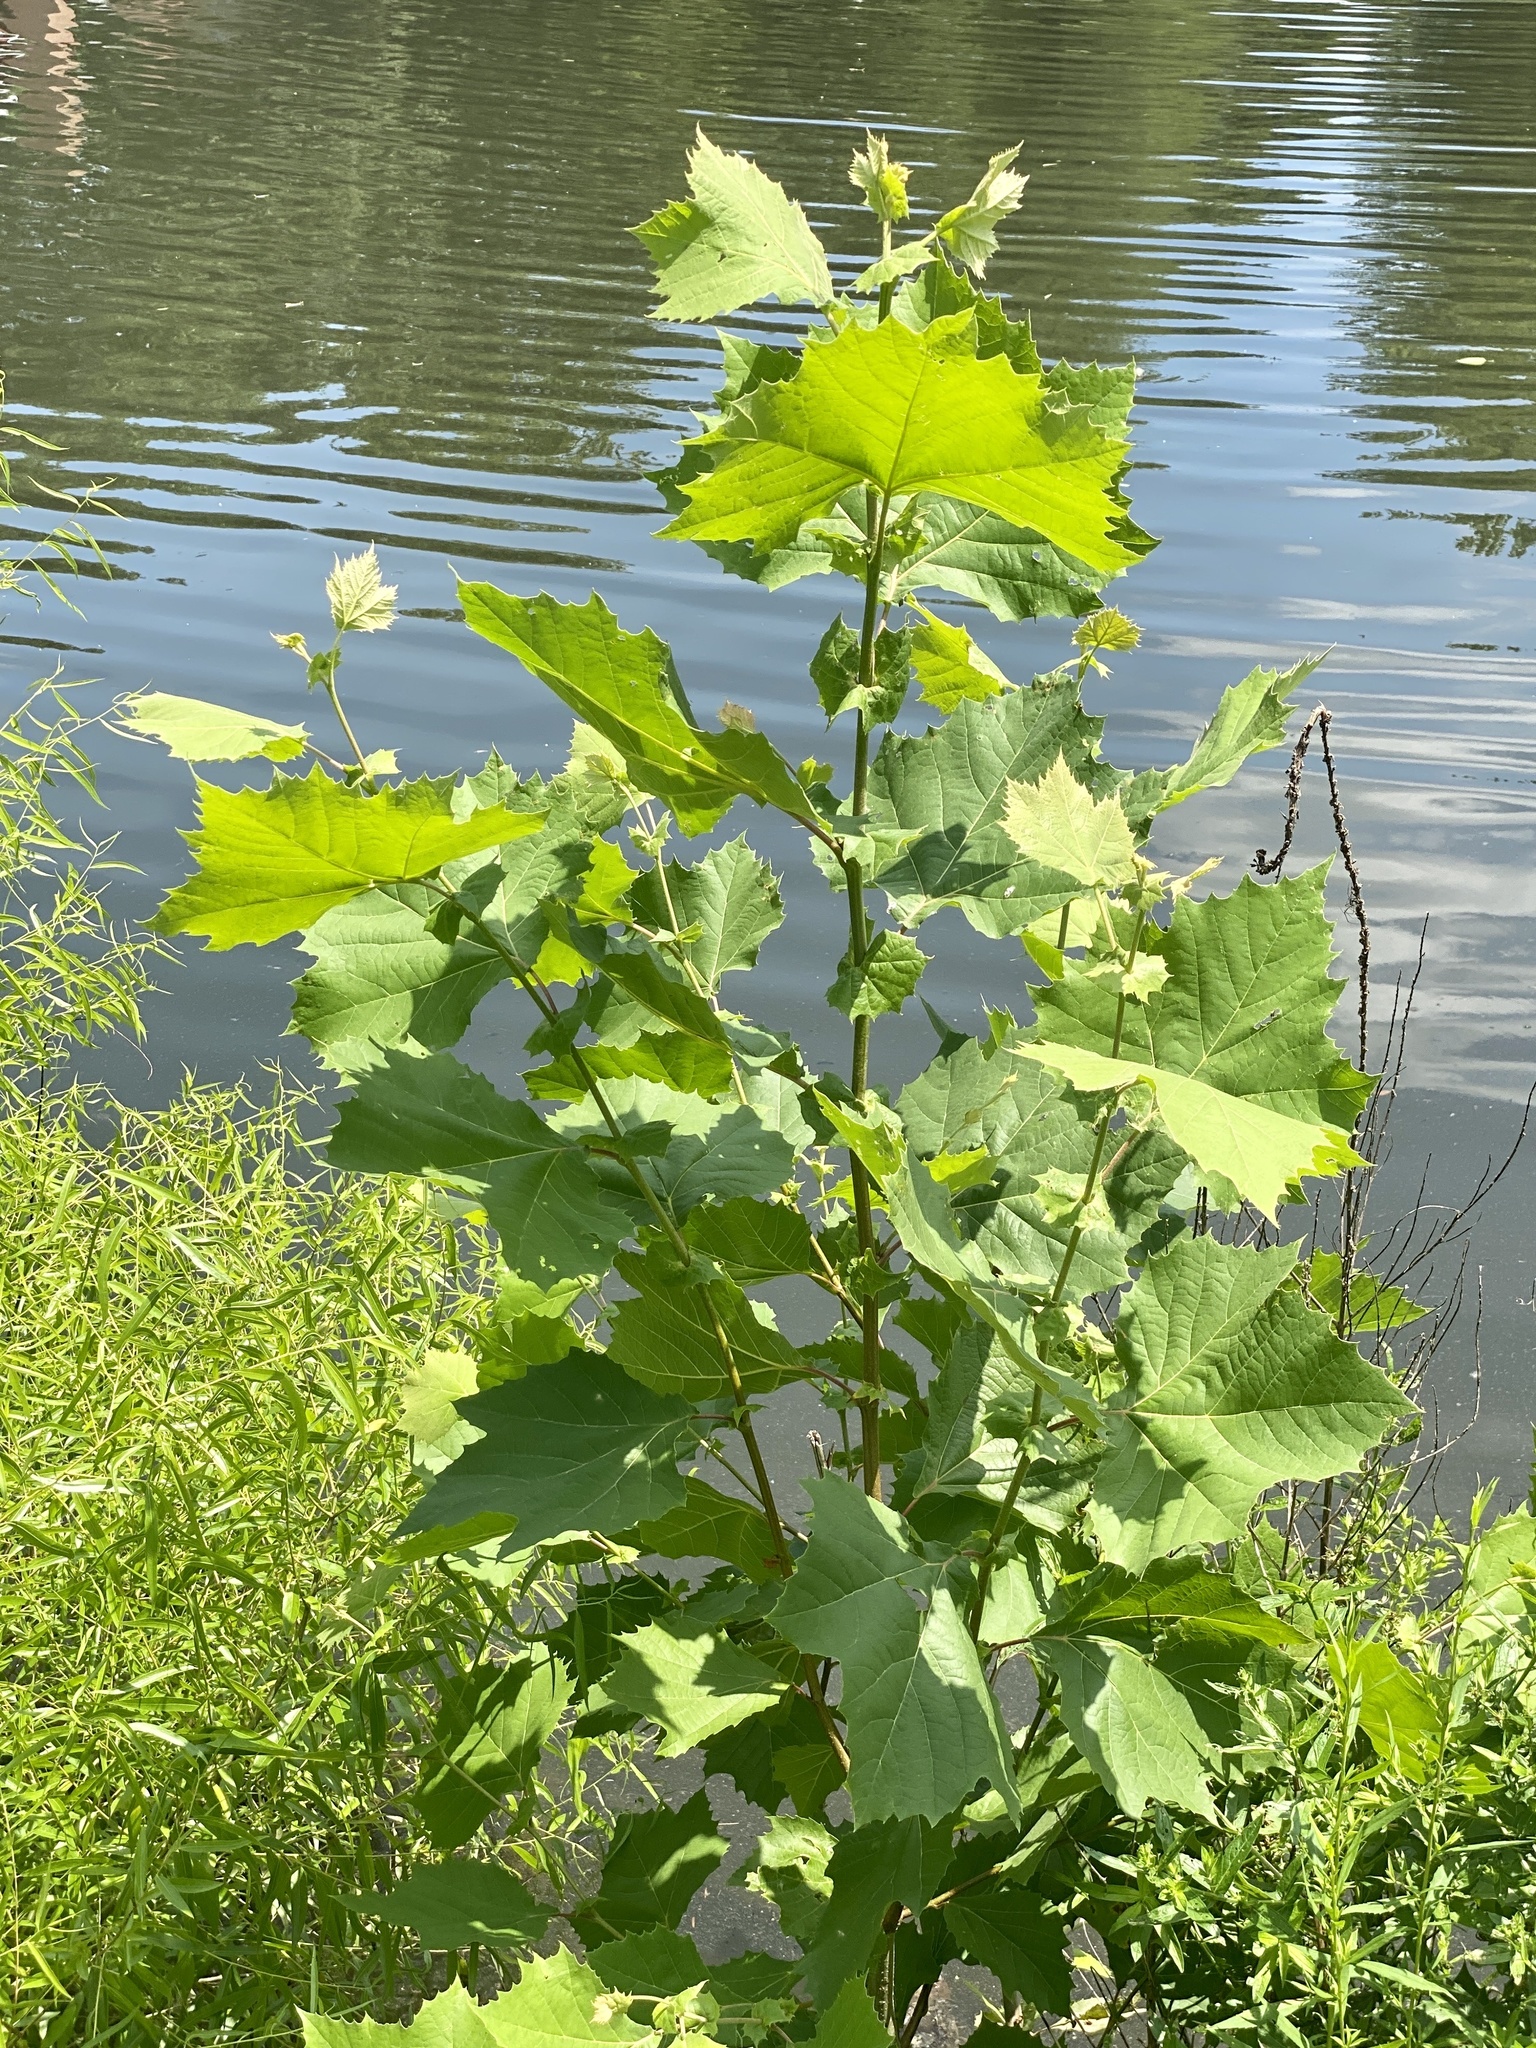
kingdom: Plantae
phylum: Tracheophyta
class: Magnoliopsida
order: Proteales
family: Platanaceae
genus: Platanus
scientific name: Platanus occidentalis
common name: American sycamore
